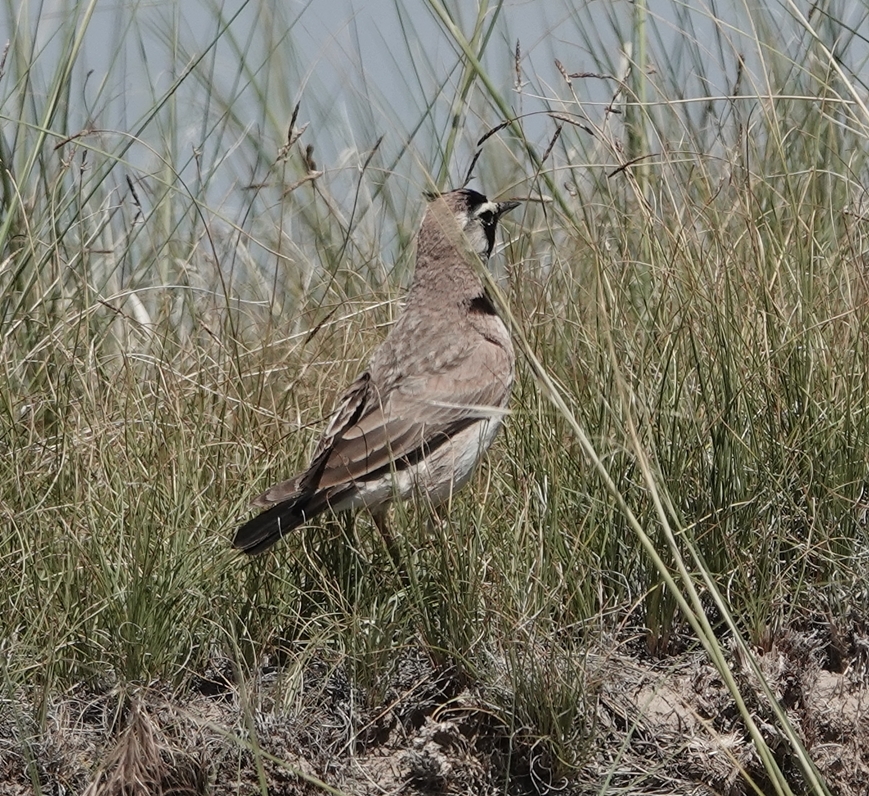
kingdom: Animalia
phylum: Chordata
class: Aves
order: Passeriformes
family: Alaudidae
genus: Eremophila
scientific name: Eremophila alpestris
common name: Horned lark
